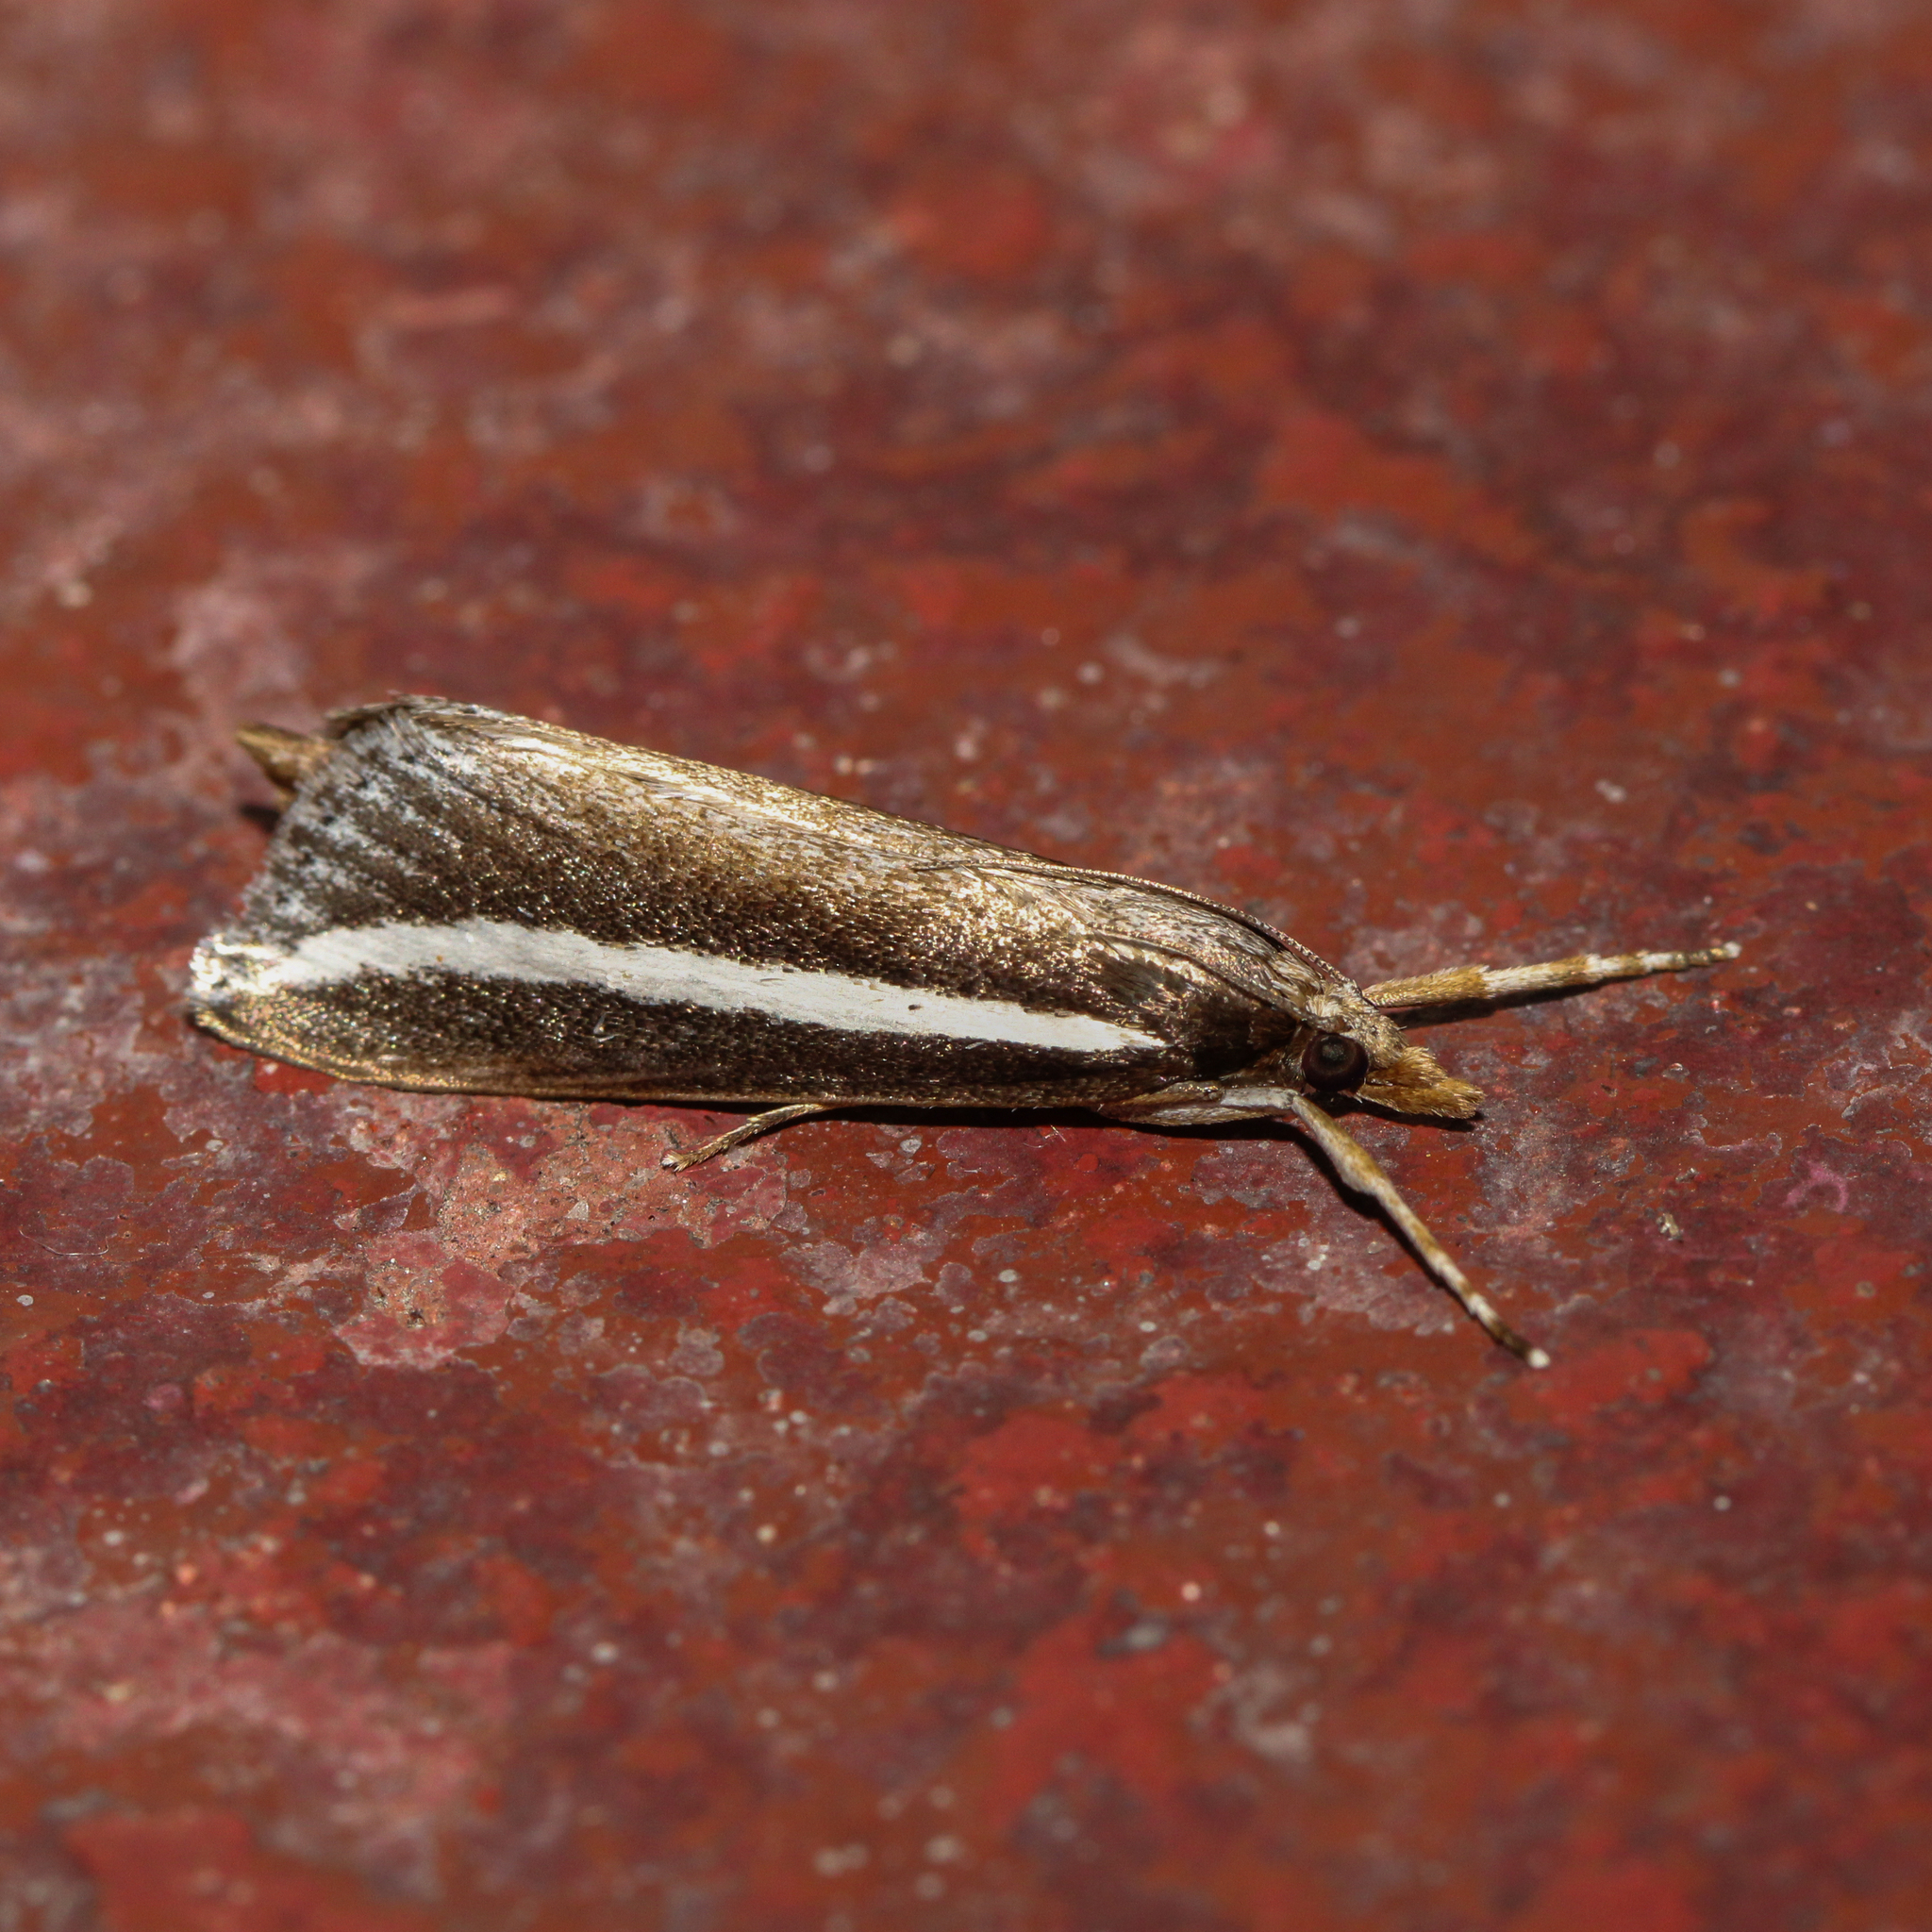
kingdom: Animalia
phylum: Arthropoda
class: Insecta
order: Lepidoptera
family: Crambidae
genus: Carectocultus
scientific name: Carectocultus perstrialis
